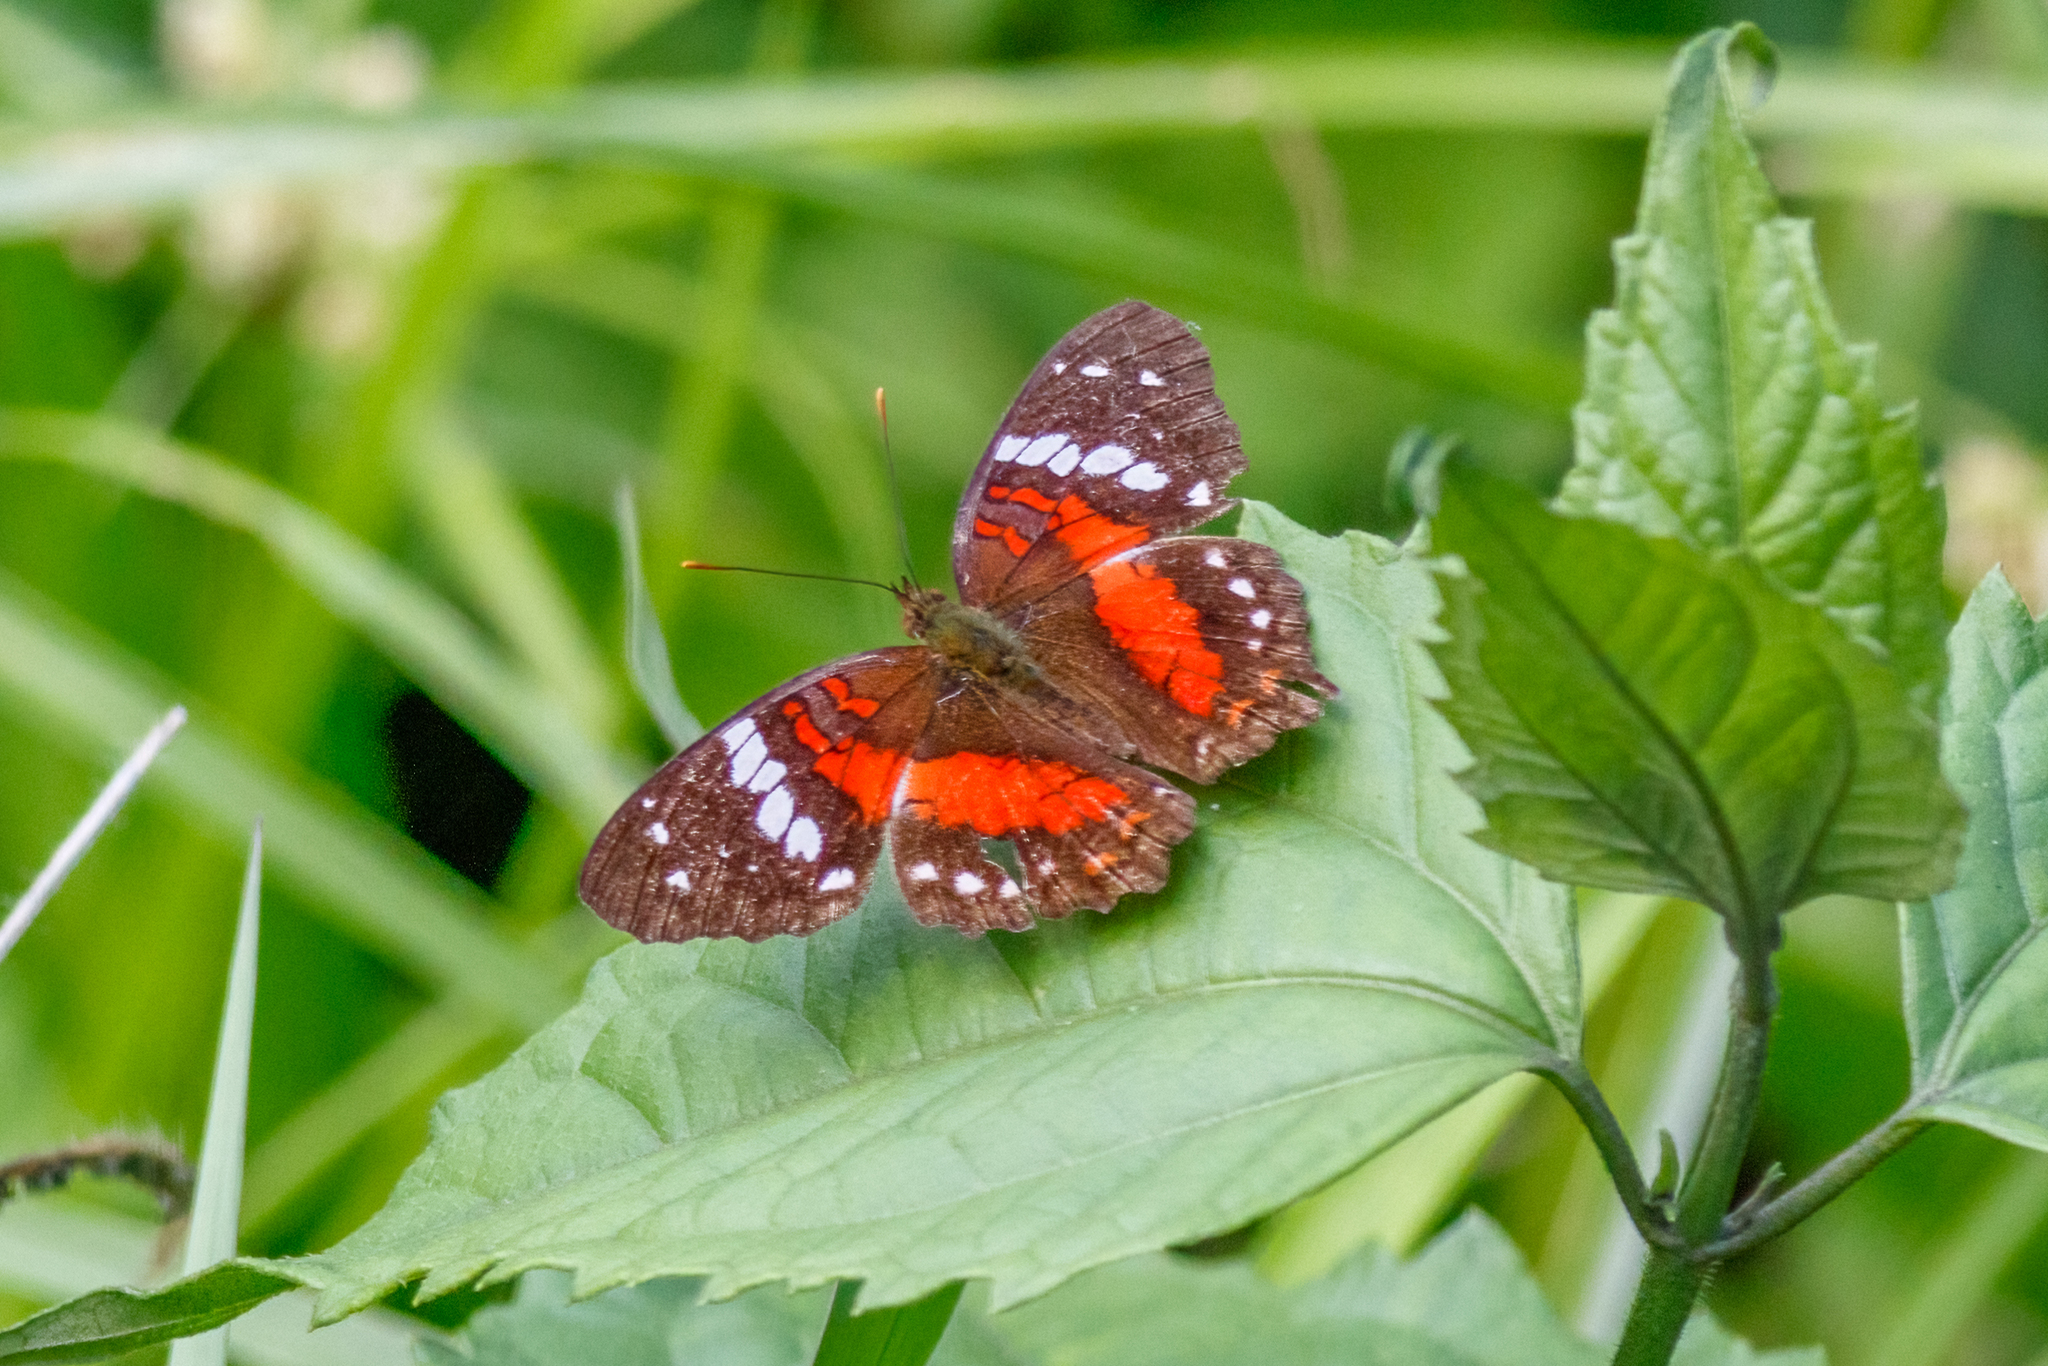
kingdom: Animalia
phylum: Arthropoda
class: Insecta
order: Lepidoptera
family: Nymphalidae
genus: Anartia
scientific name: Anartia amathea
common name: Red peacock
